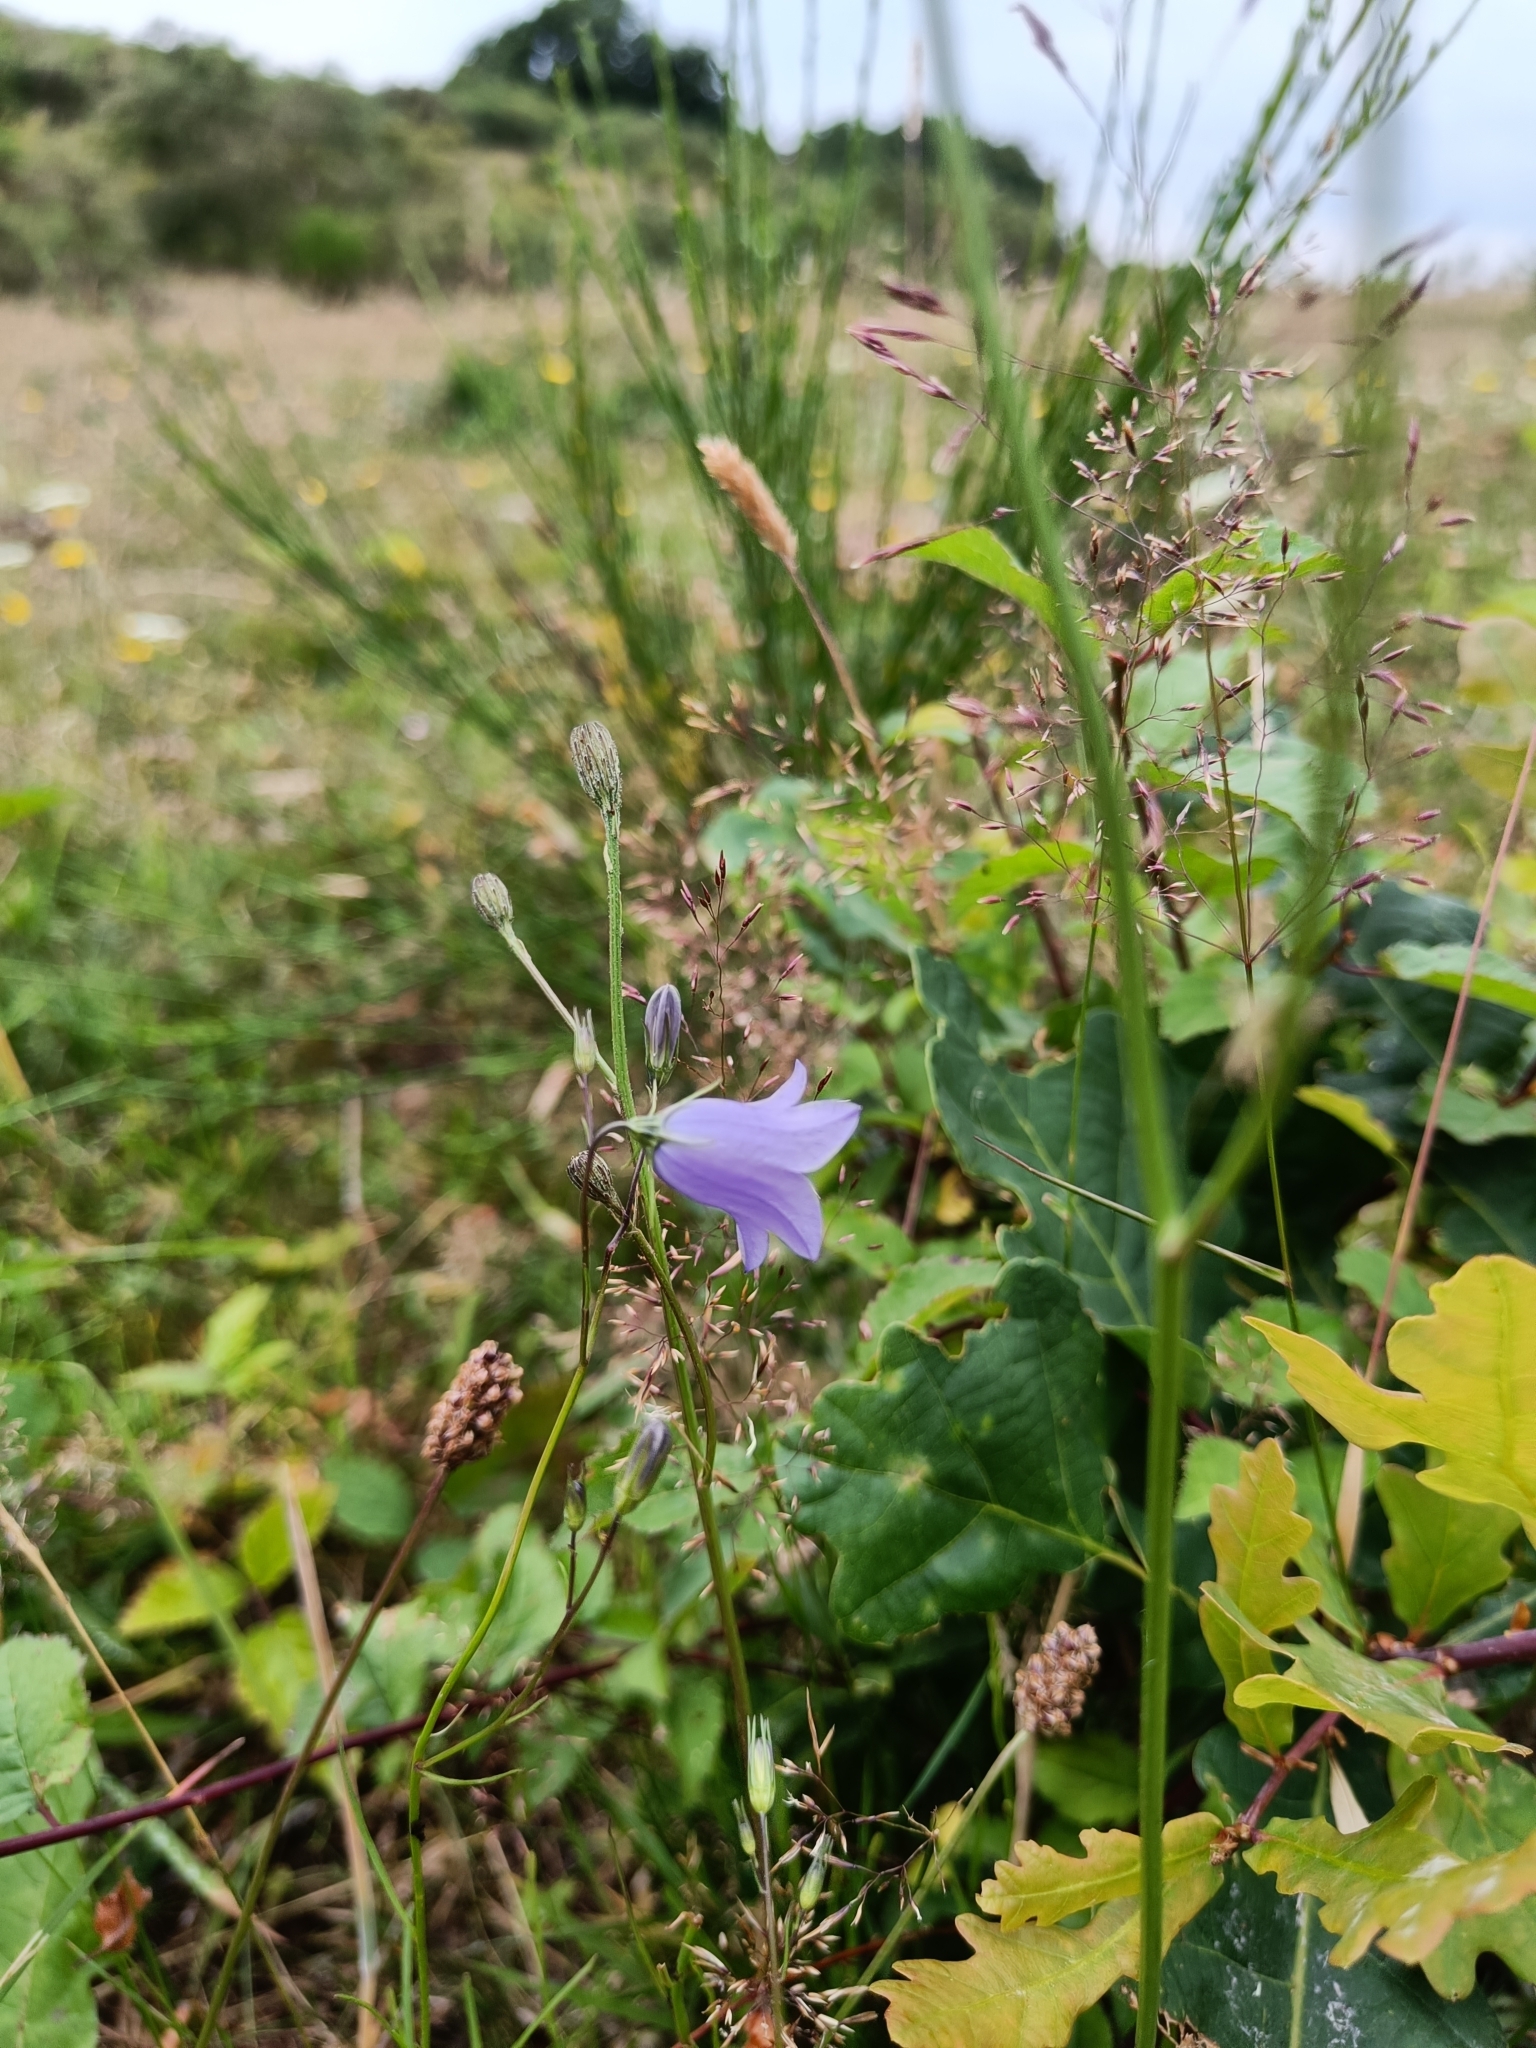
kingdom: Plantae
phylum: Tracheophyta
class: Magnoliopsida
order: Asterales
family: Campanulaceae
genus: Campanula
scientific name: Campanula rotundifolia
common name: Harebell
